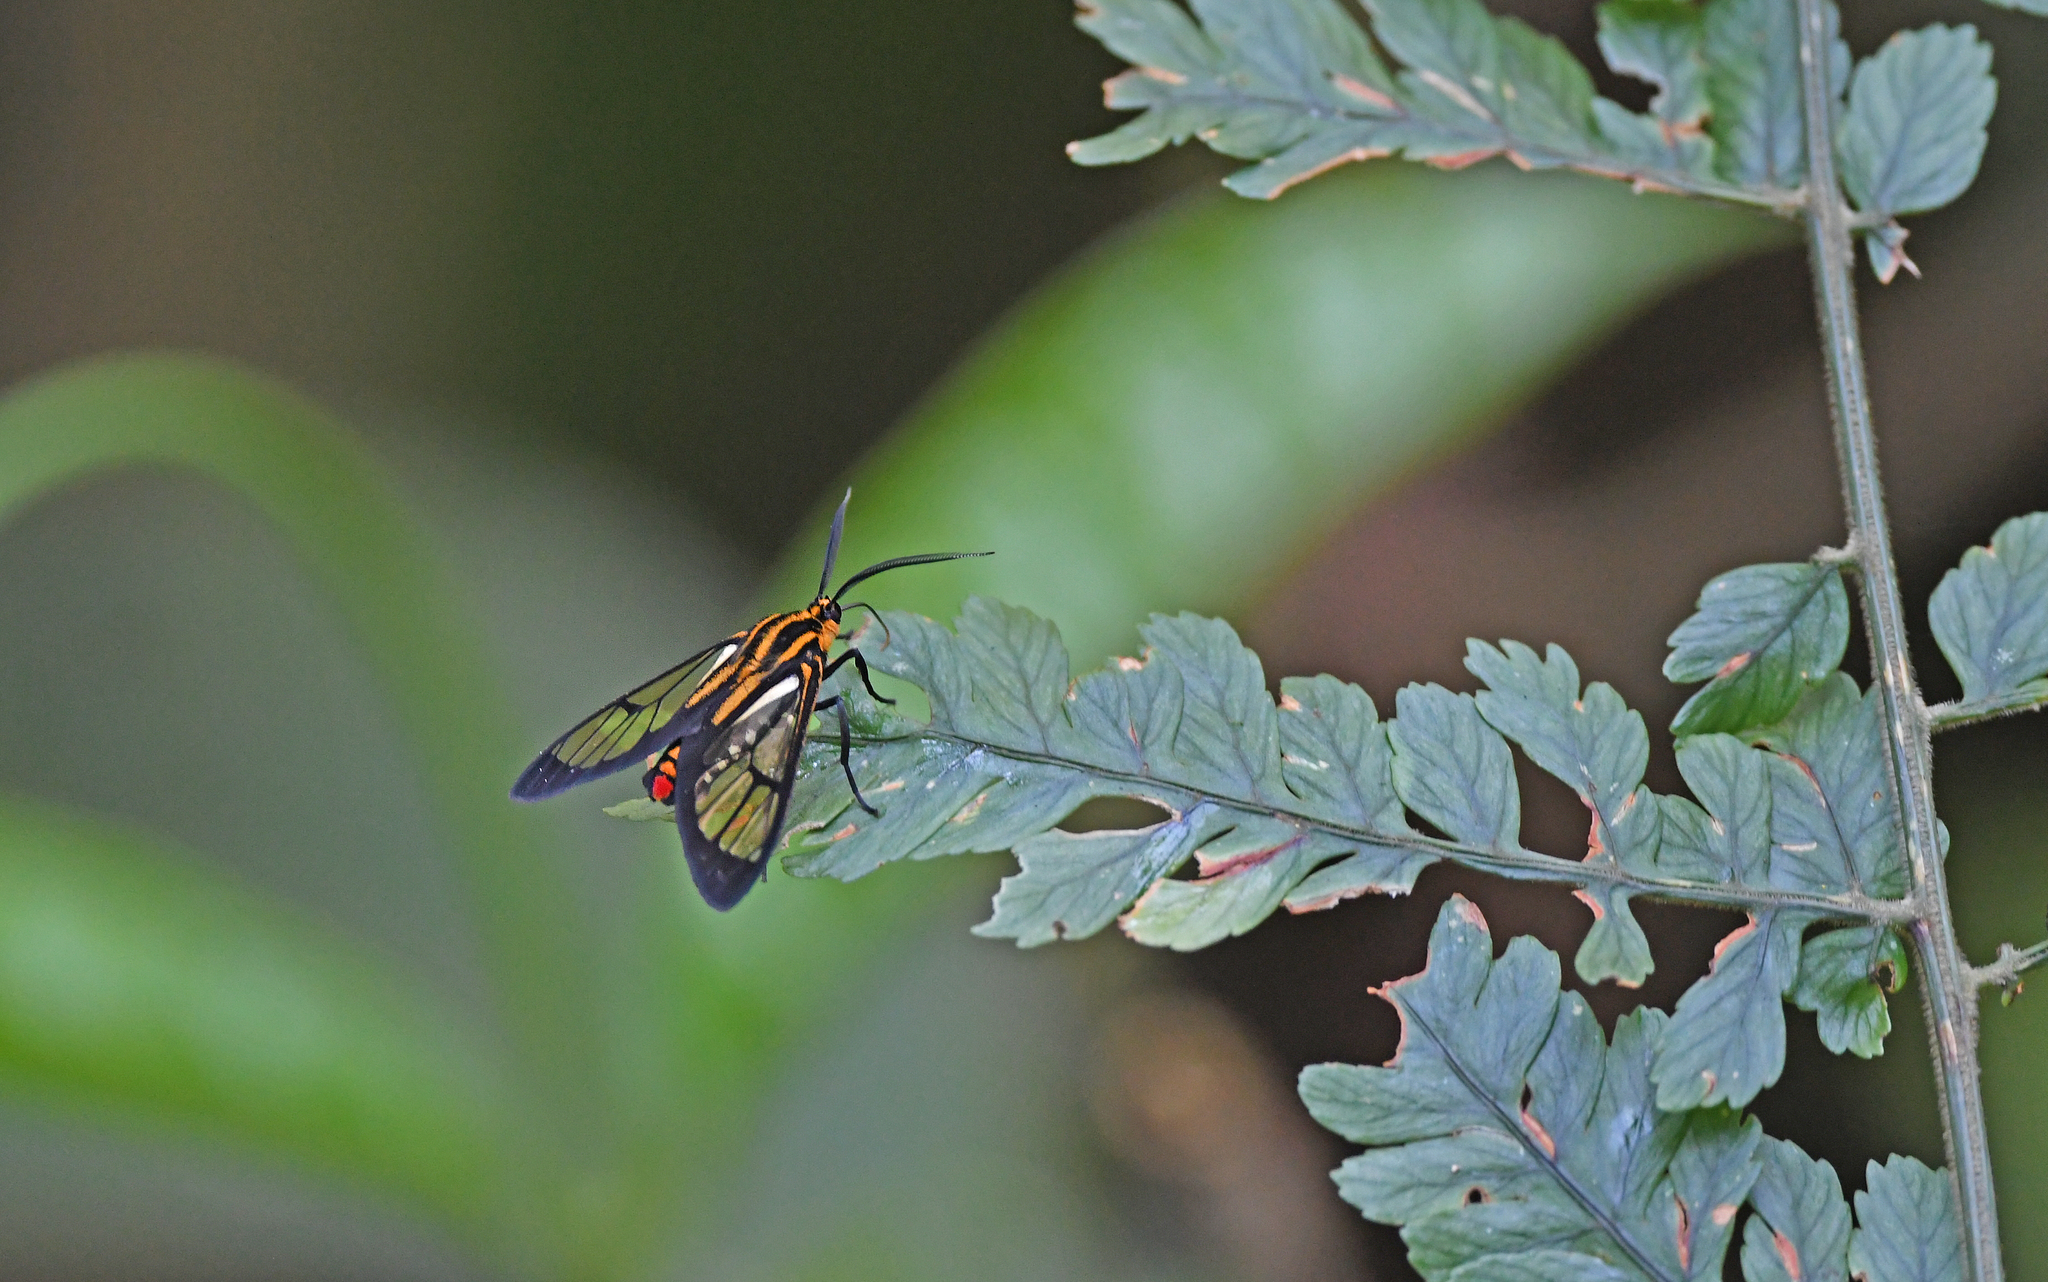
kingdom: Animalia
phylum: Arthropoda
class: Insecta
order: Lepidoptera
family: Erebidae
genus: Corematura
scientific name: Corematura chrysogastra
